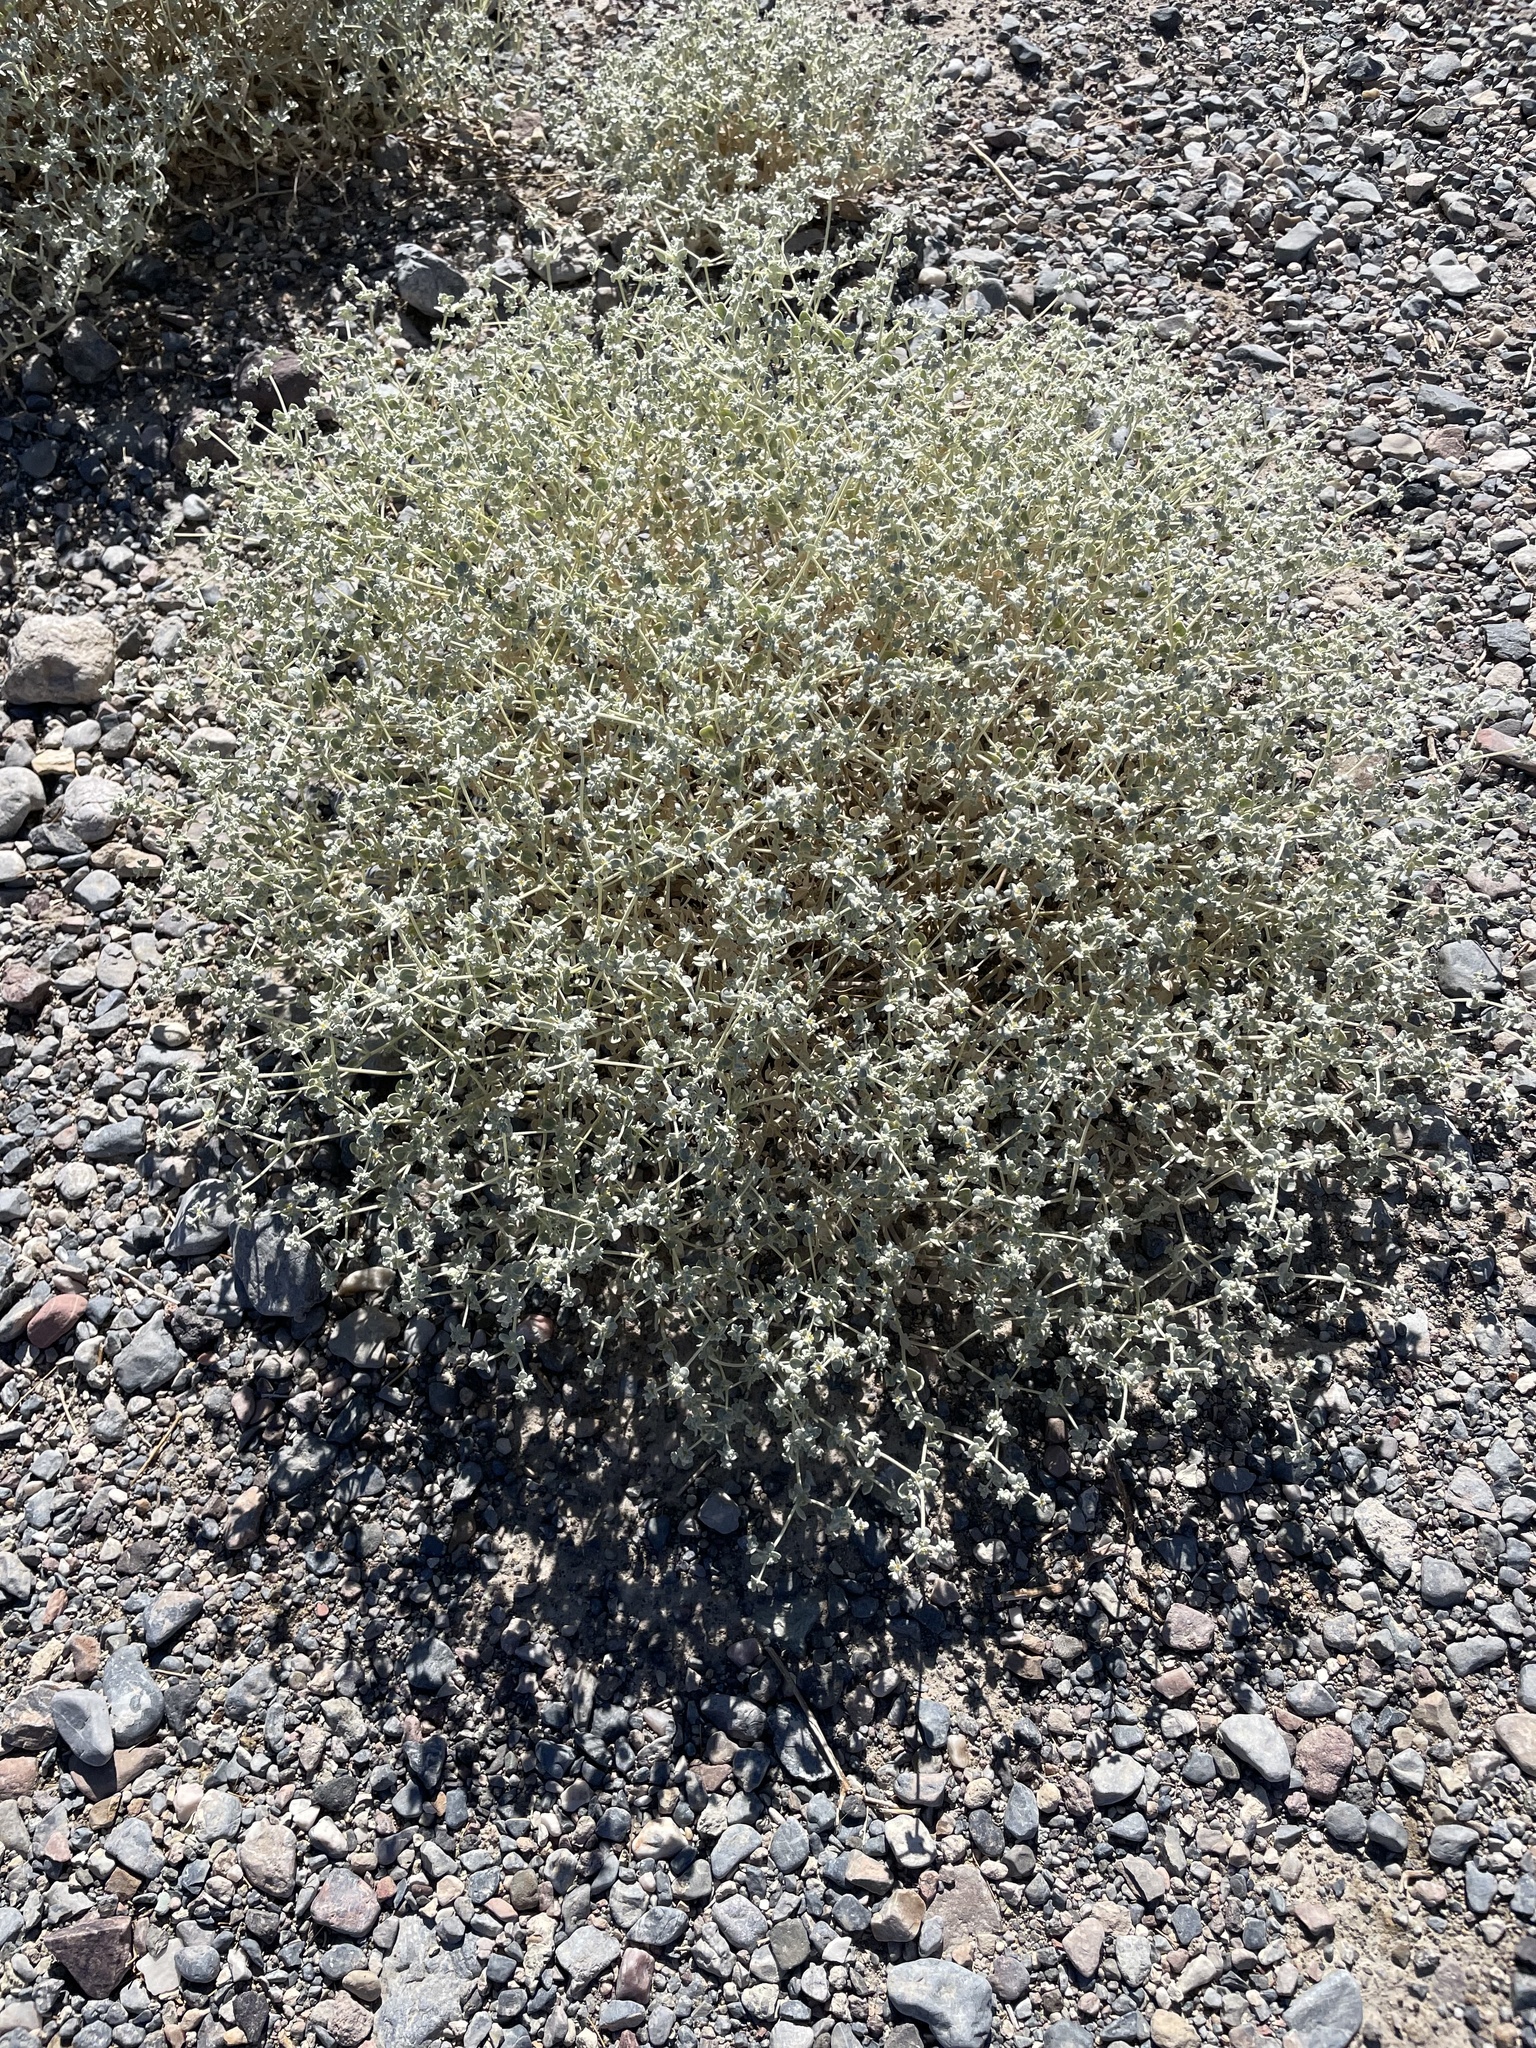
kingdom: Plantae
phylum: Tracheophyta
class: Magnoliopsida
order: Caryophyllales
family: Amaranthaceae
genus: Tidestromia
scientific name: Tidestromia suffruticosa
